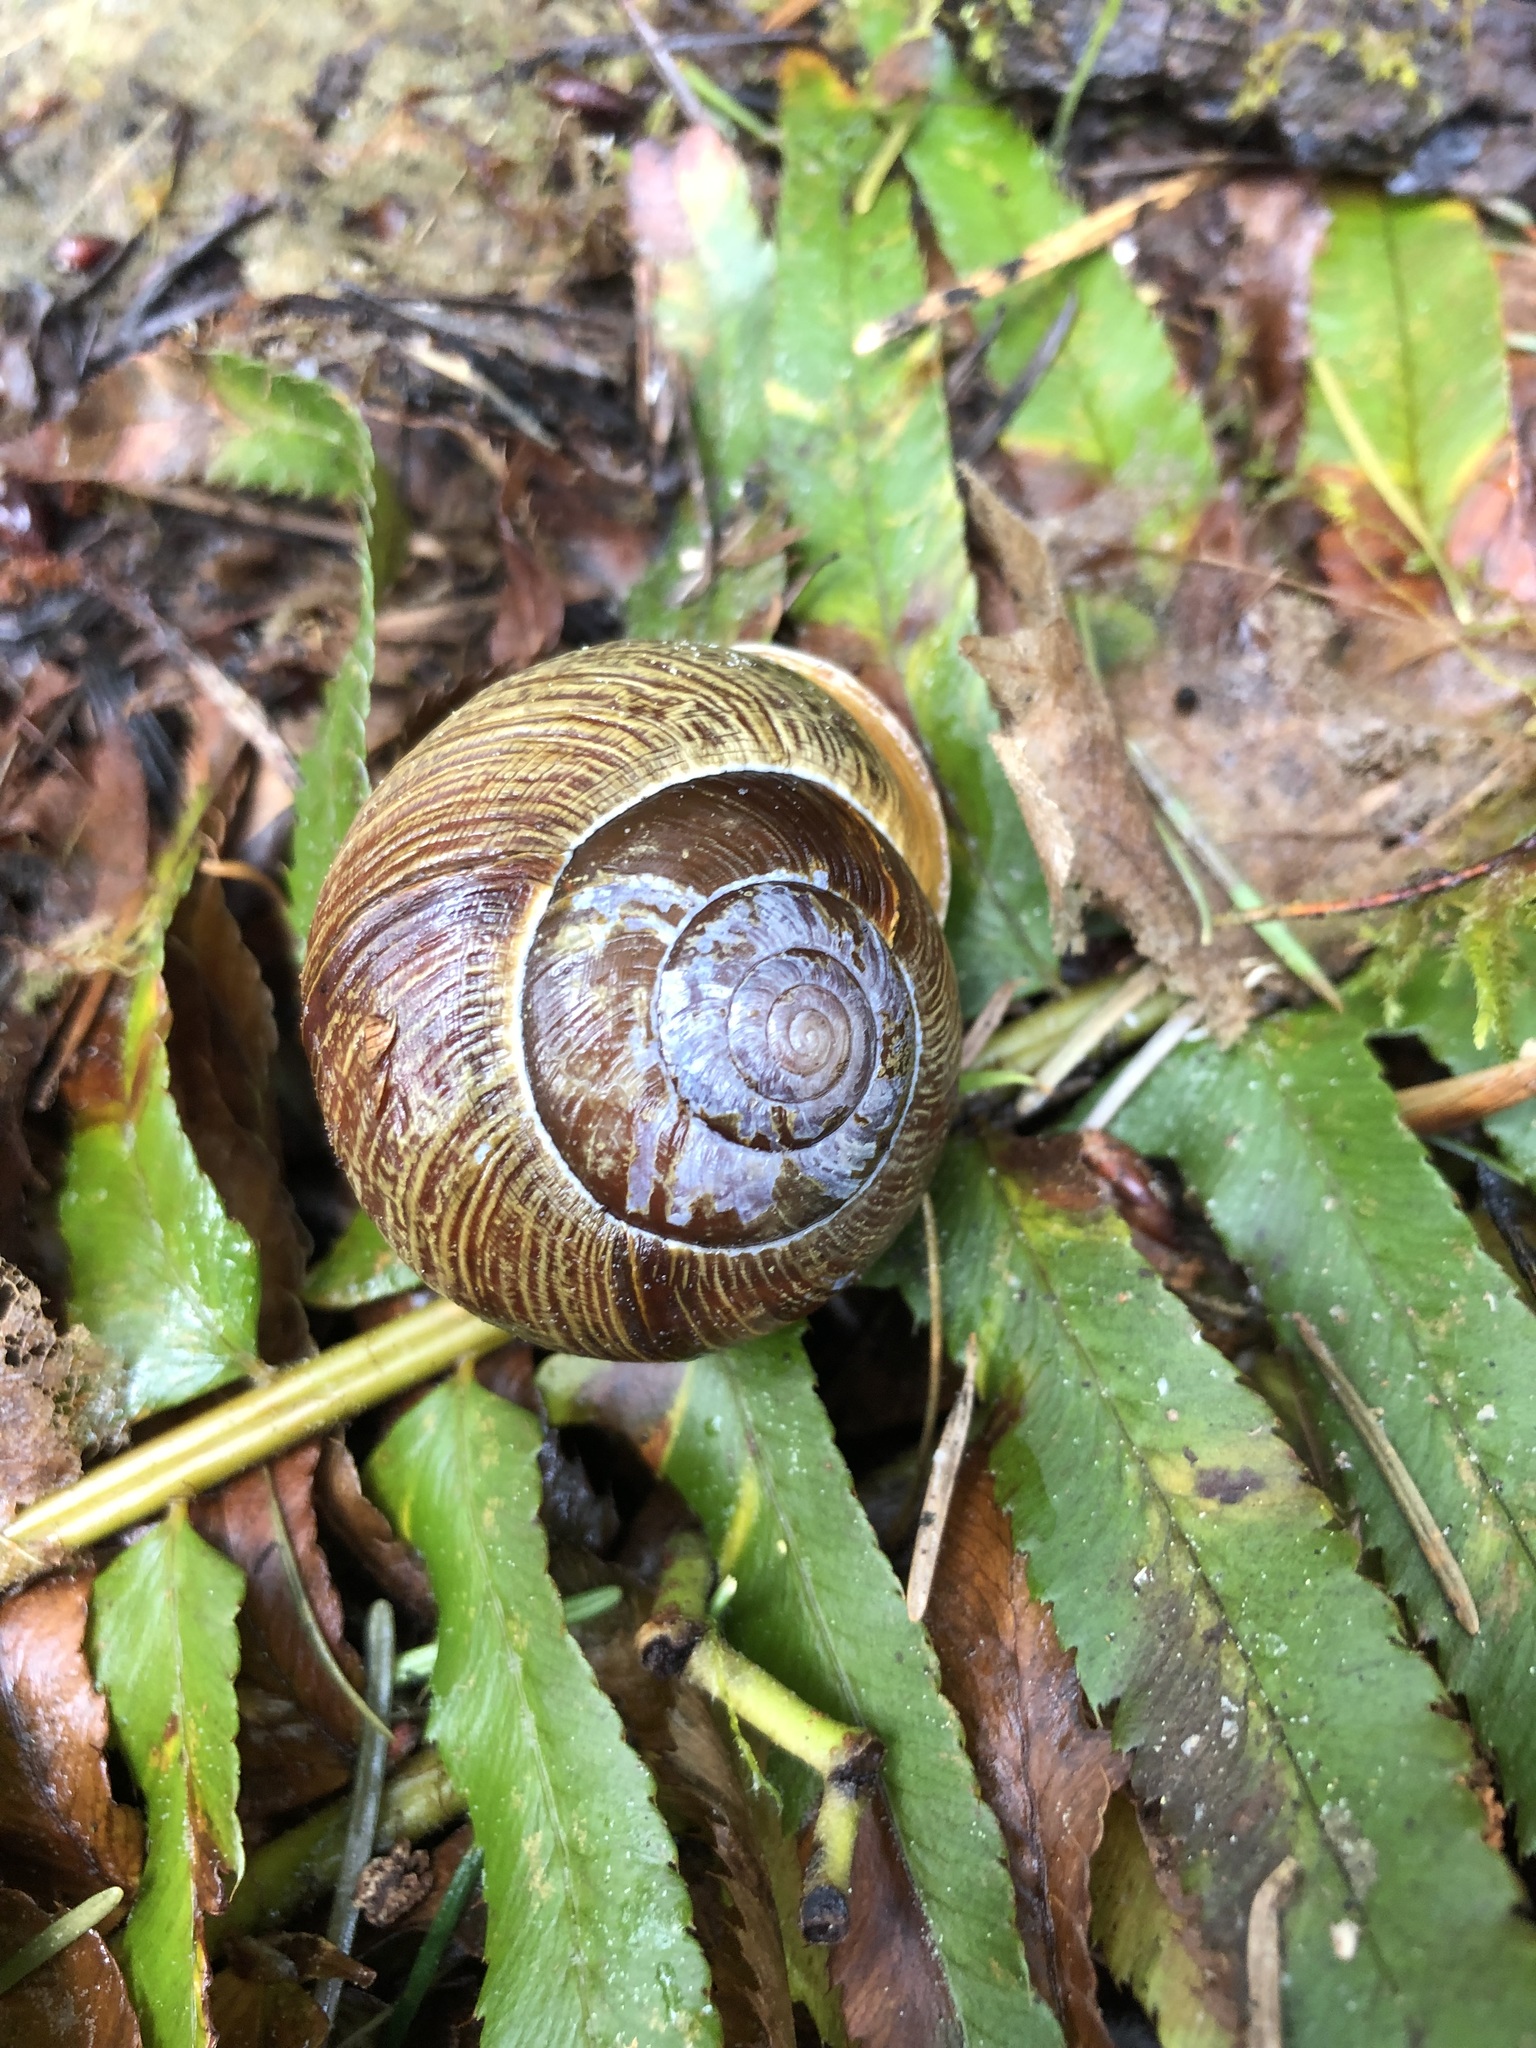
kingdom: Animalia
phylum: Mollusca
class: Gastropoda
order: Stylommatophora
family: Polygyridae
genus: Allogona
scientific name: Allogona townsendiana
